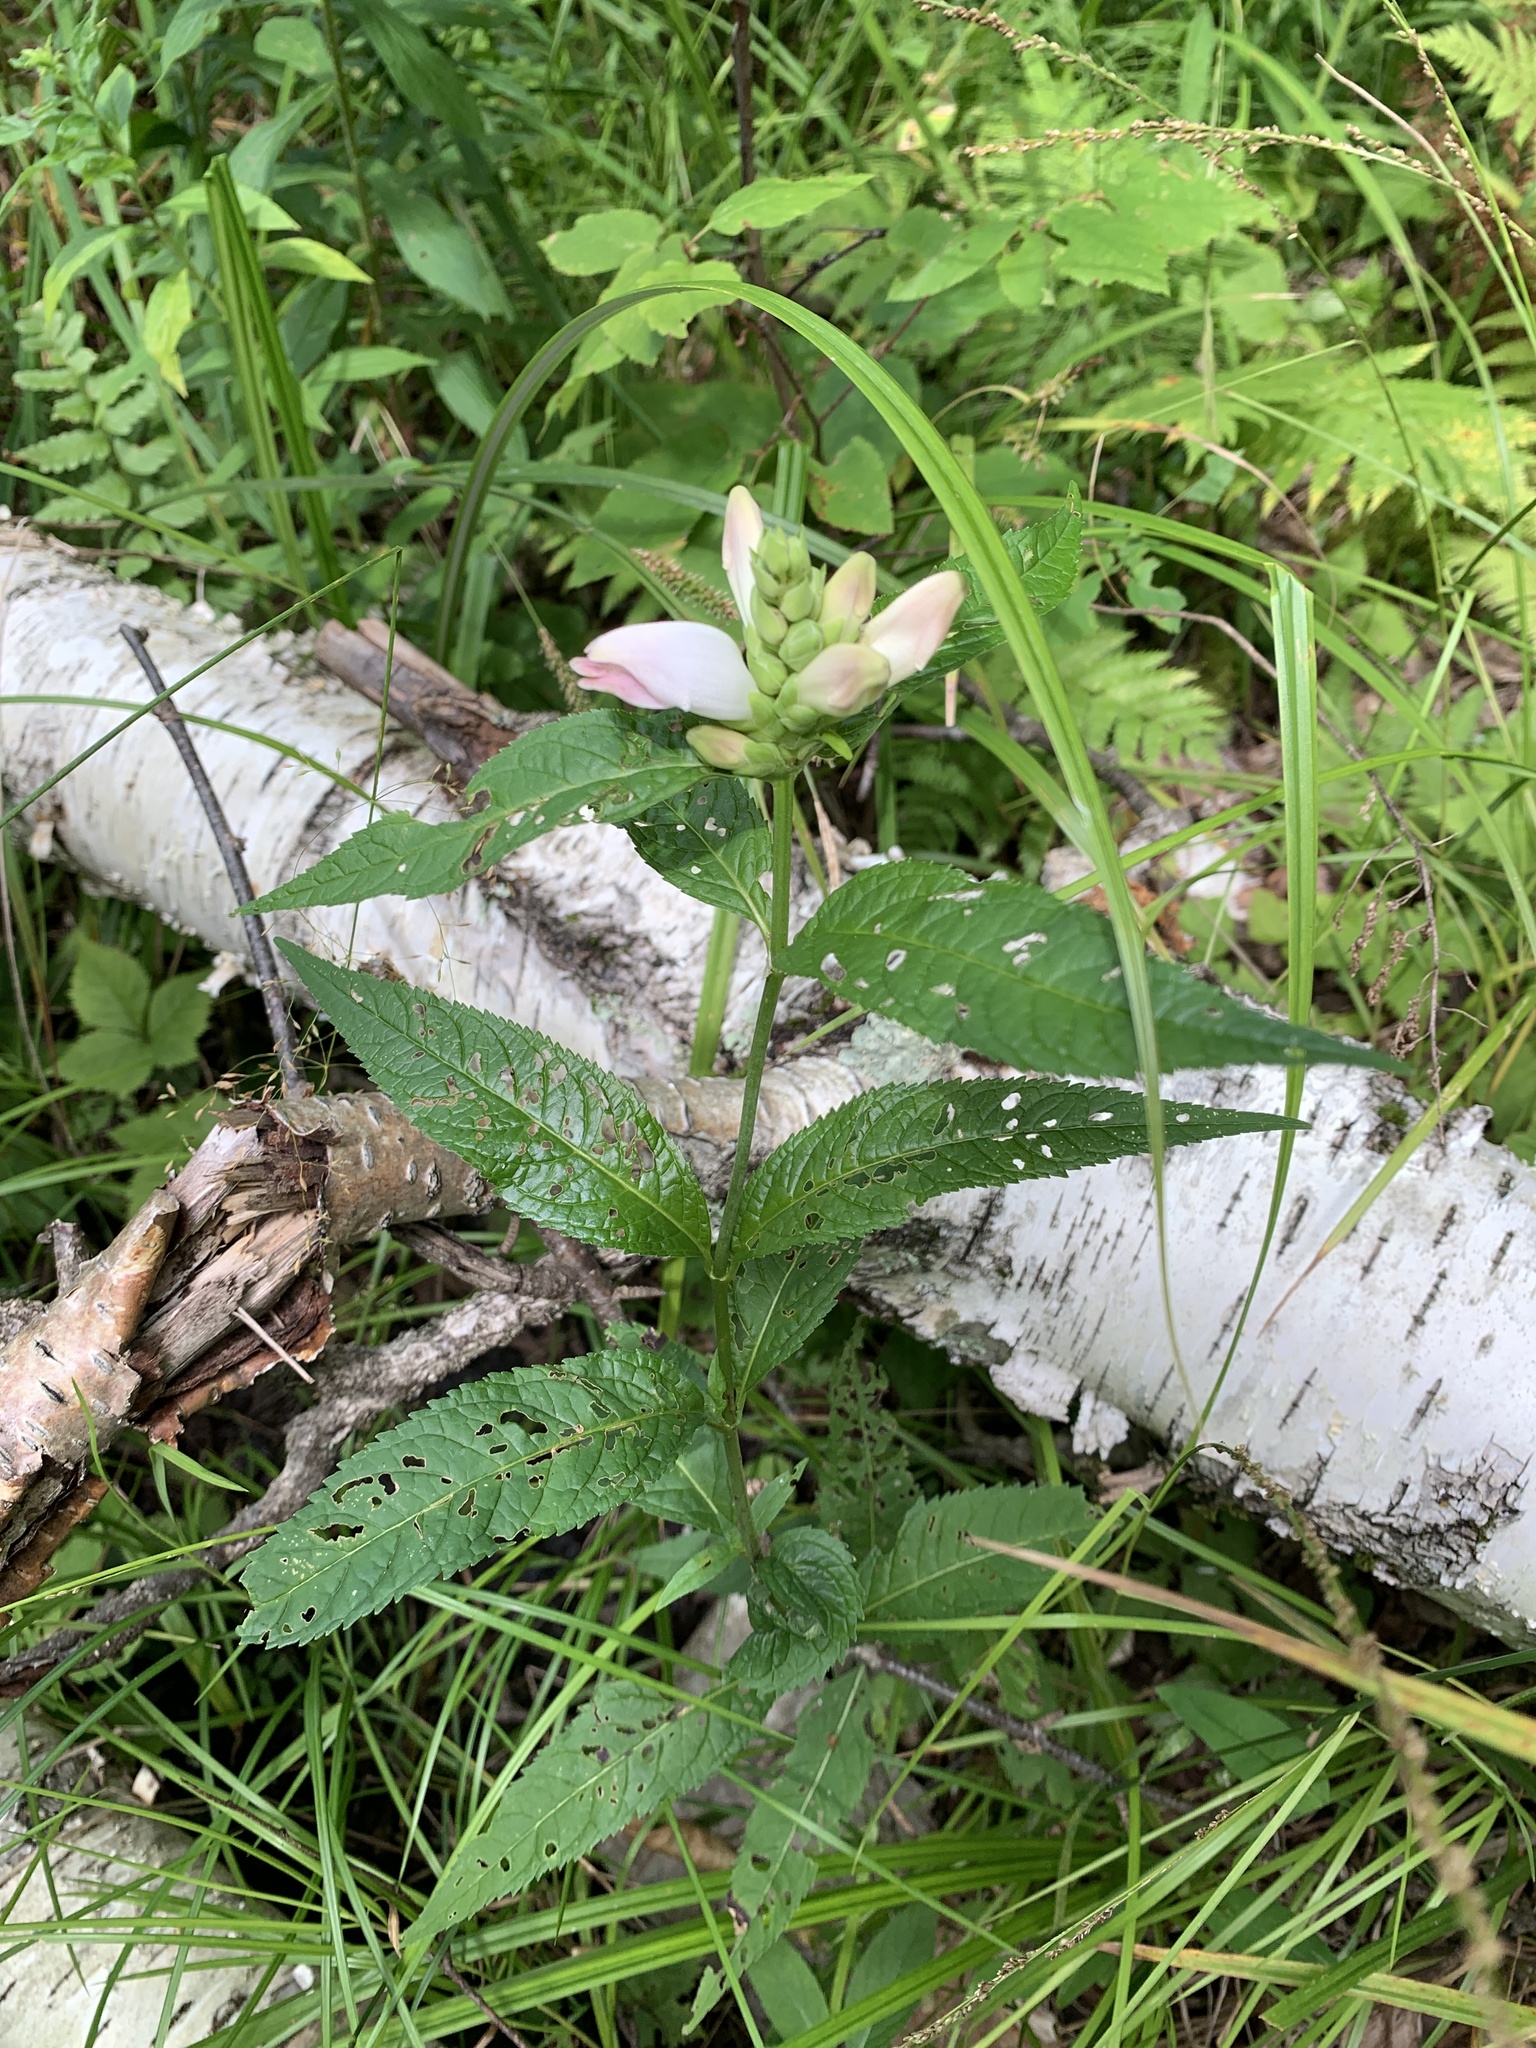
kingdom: Plantae
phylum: Tracheophyta
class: Magnoliopsida
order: Lamiales
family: Plantaginaceae
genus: Chelone
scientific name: Chelone glabra
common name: Snakehead
